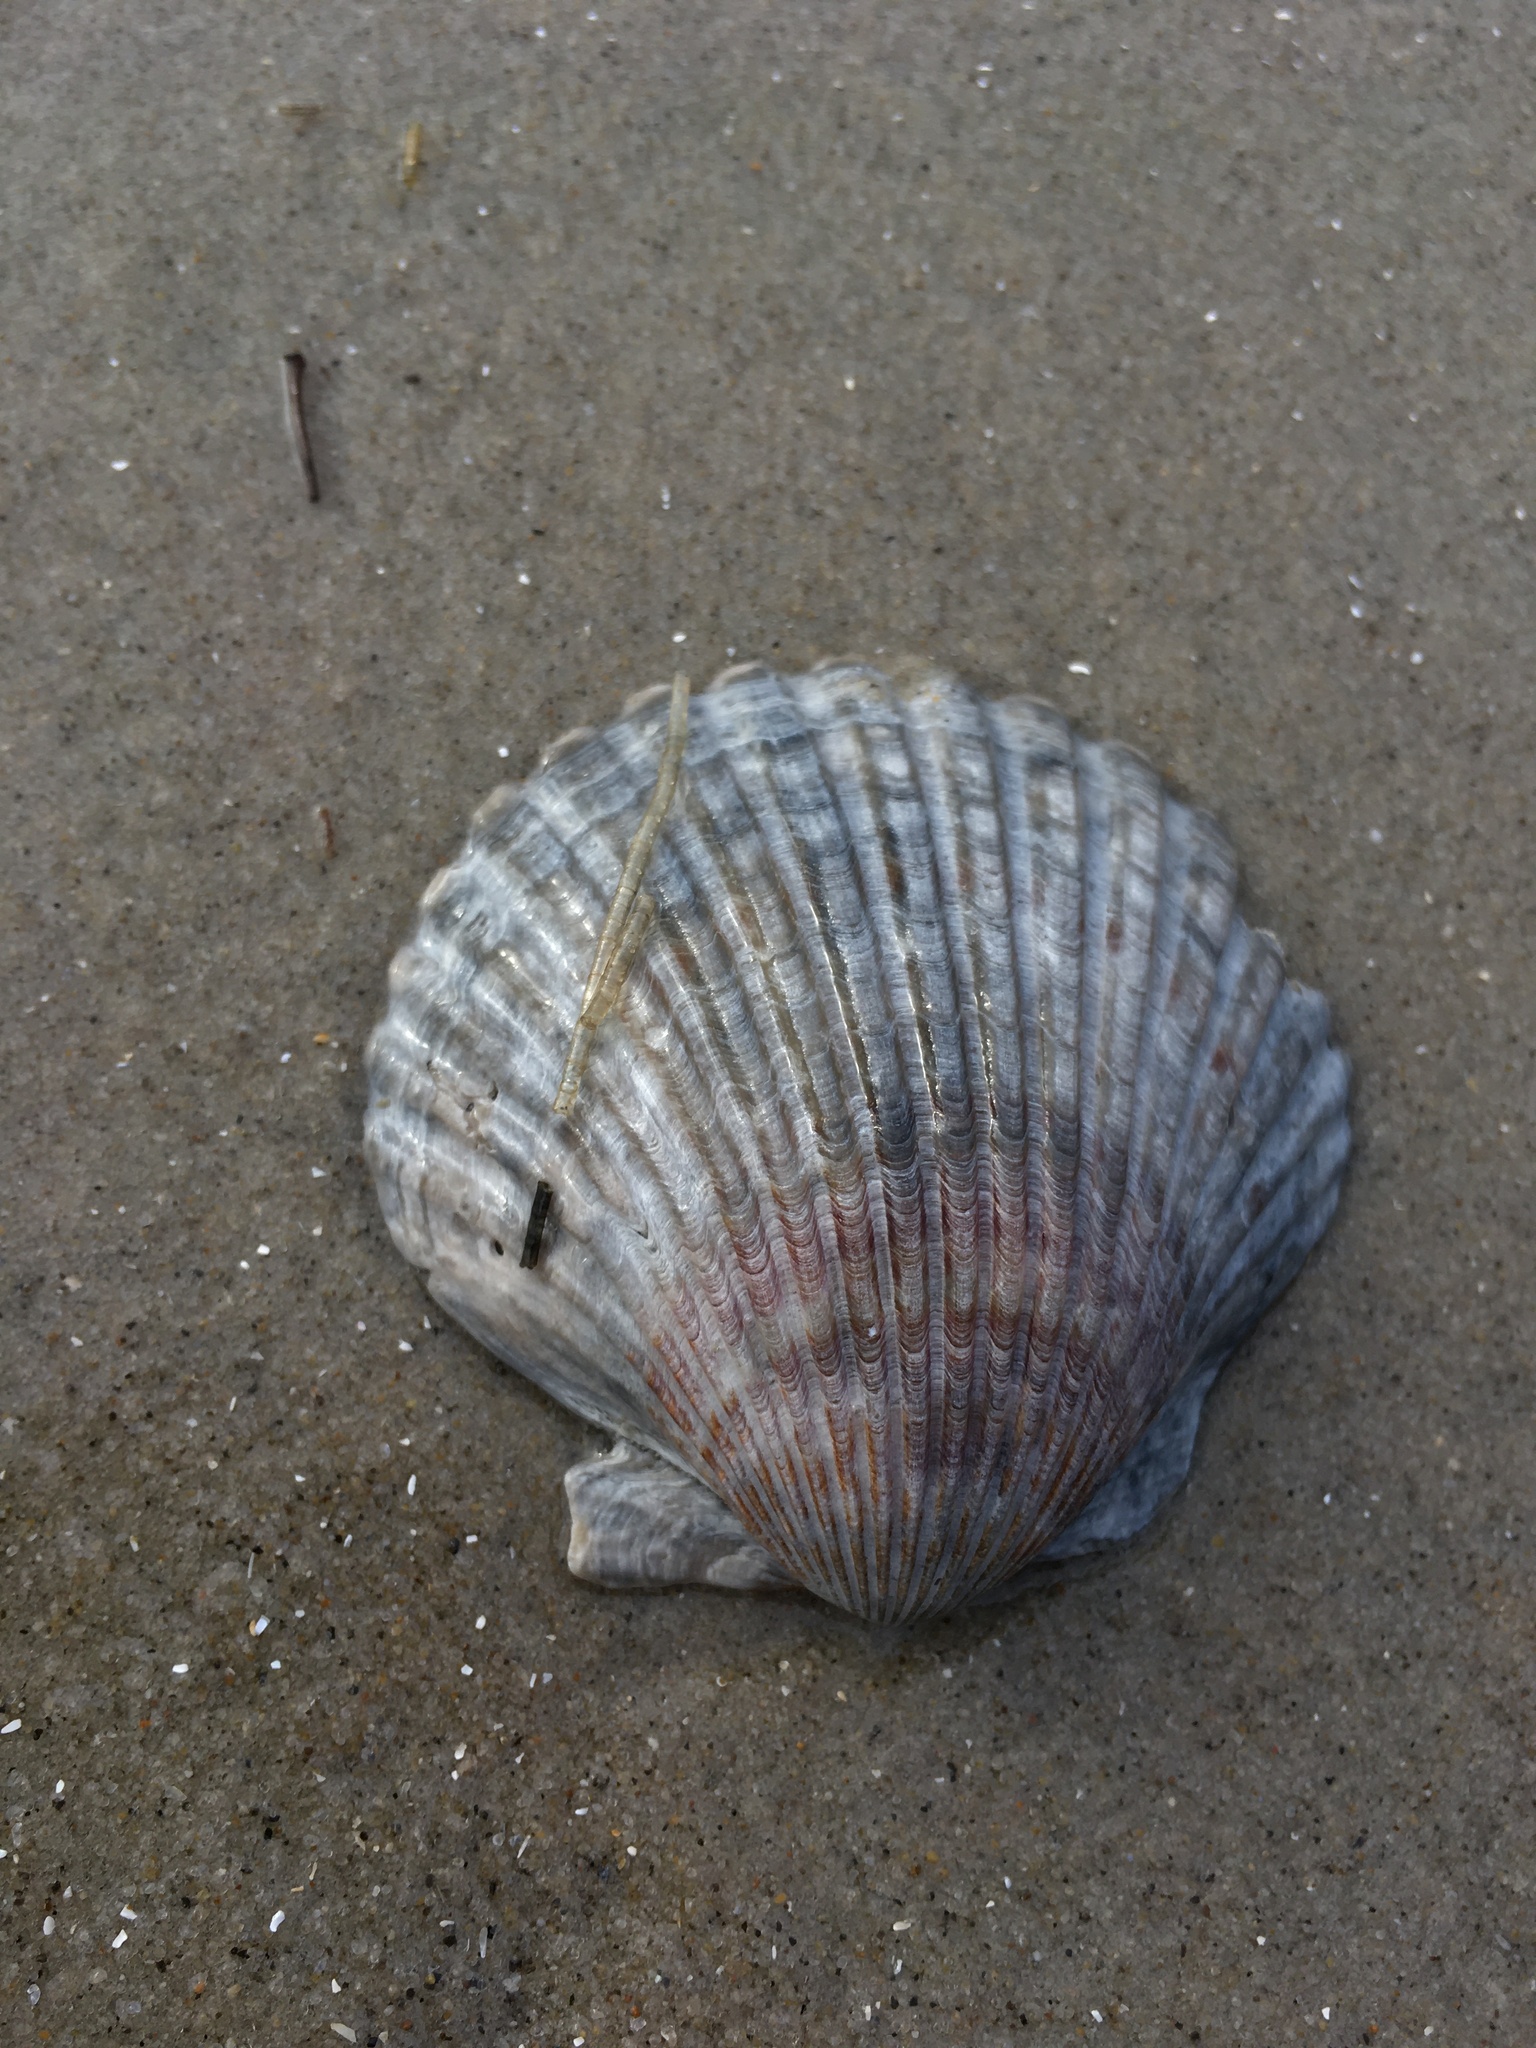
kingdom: Animalia
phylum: Mollusca
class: Bivalvia
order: Pectinida
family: Pectinidae
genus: Argopecten
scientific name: Argopecten irradians
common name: Atlantic bay scallop
